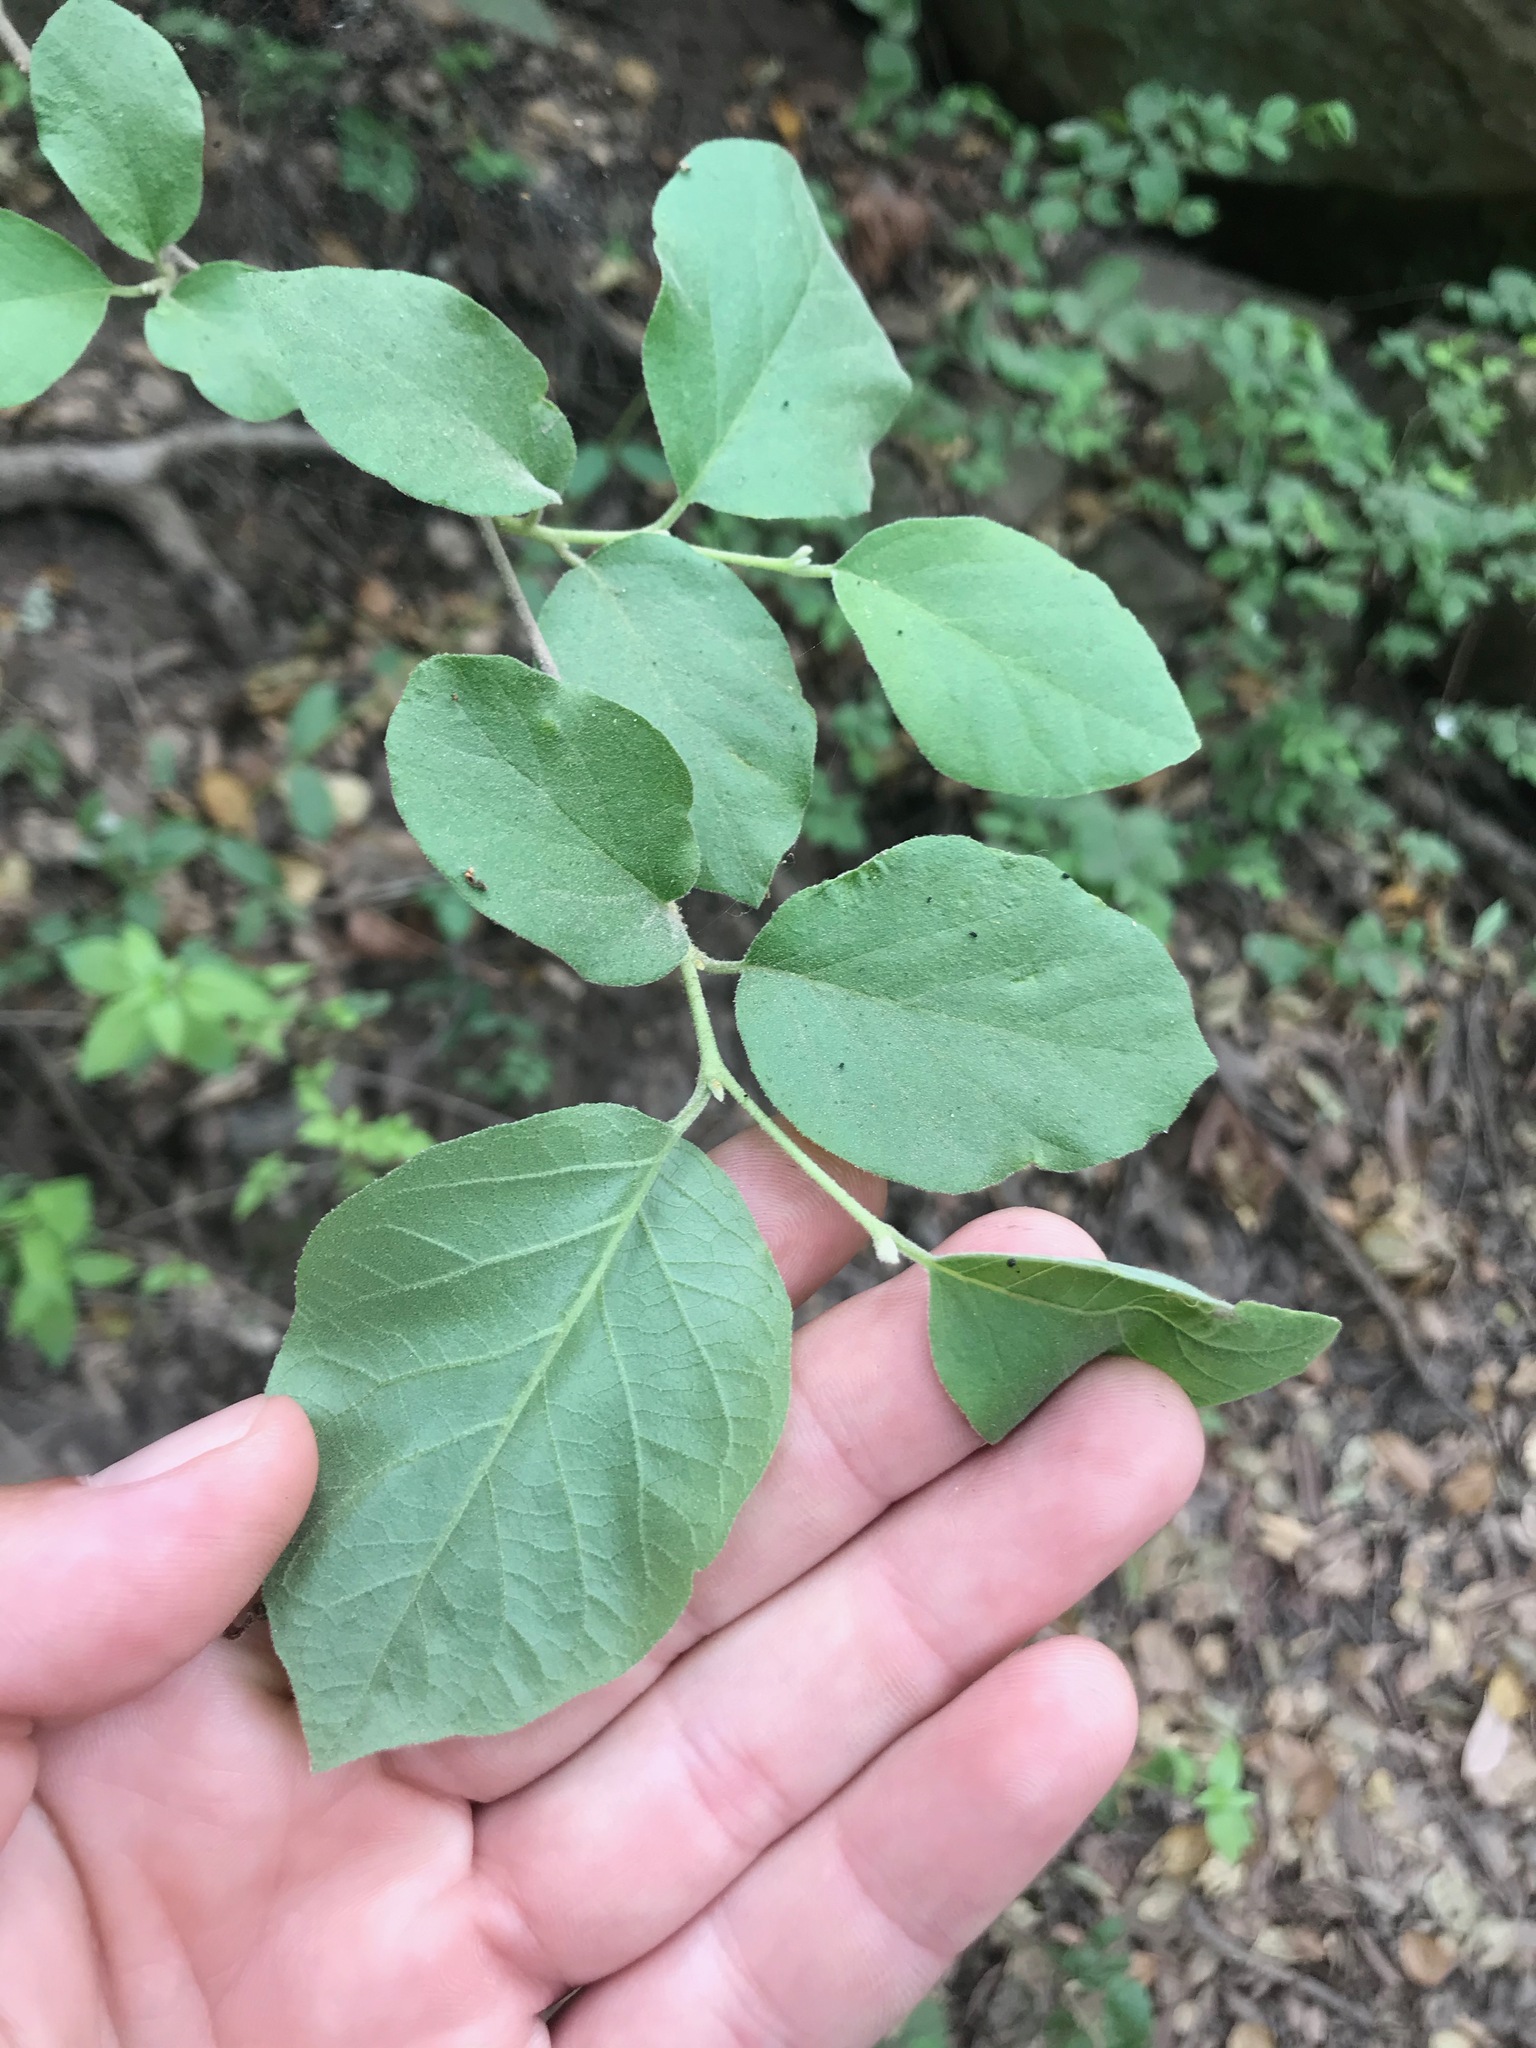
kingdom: Plantae
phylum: Tracheophyta
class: Magnoliopsida
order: Ericales
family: Styracaceae
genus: Styrax
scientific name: Styrax redivivus
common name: California styrax
